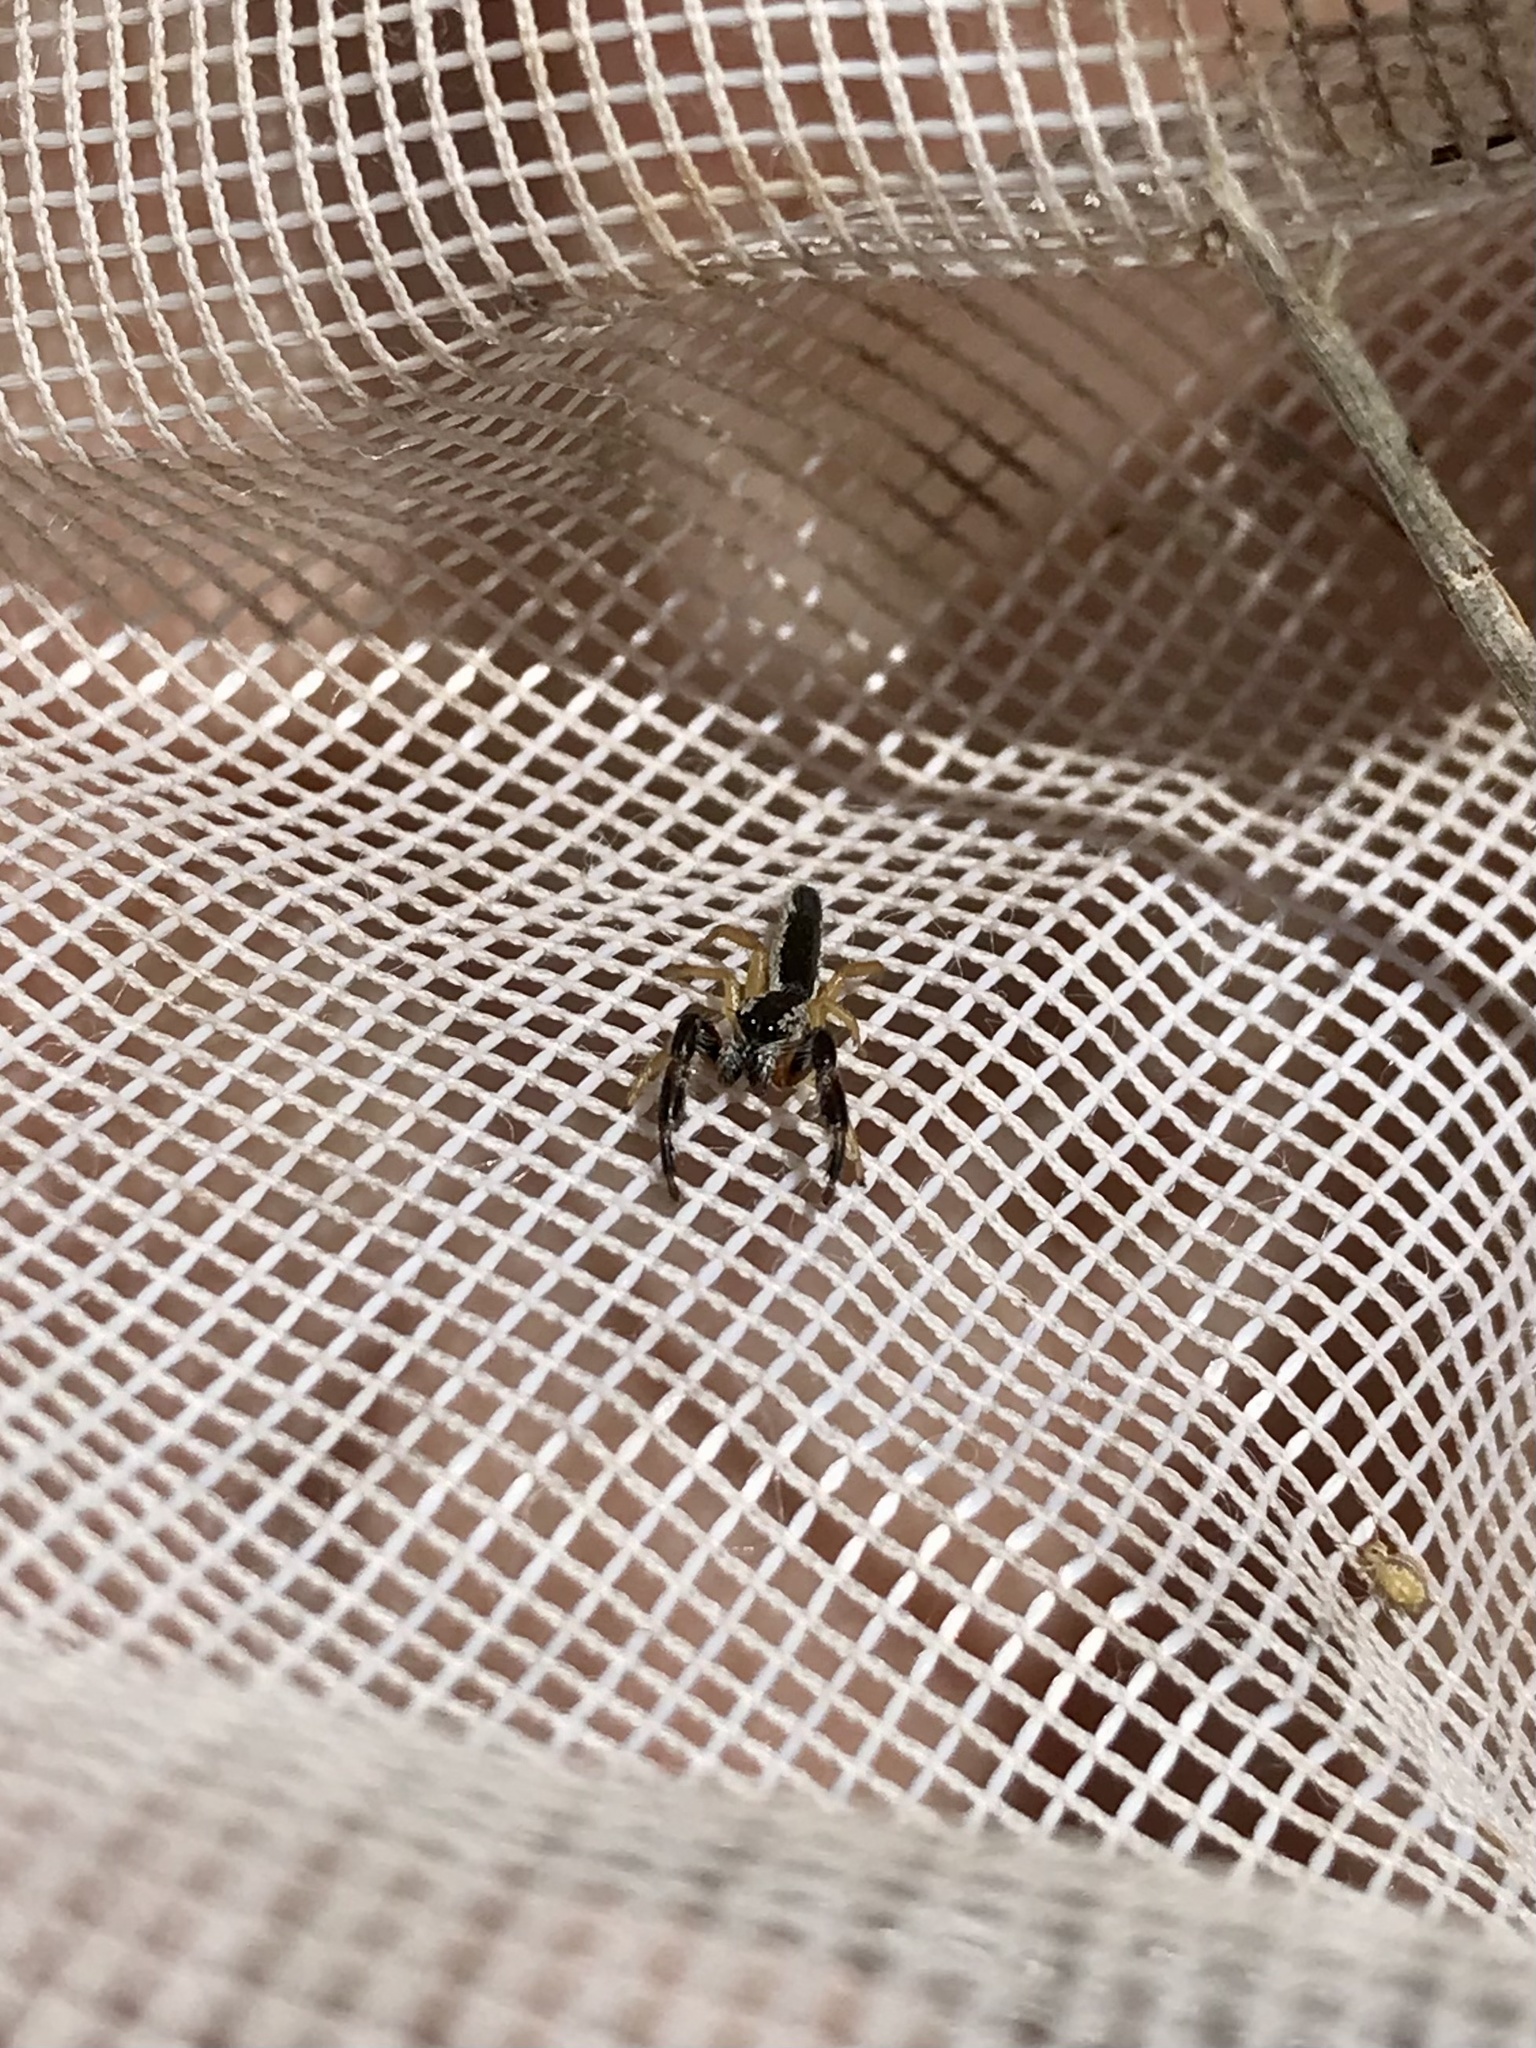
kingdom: Animalia
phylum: Arthropoda
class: Arachnida
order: Araneae
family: Salticidae
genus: Marpissa
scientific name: Marpissa pikei
